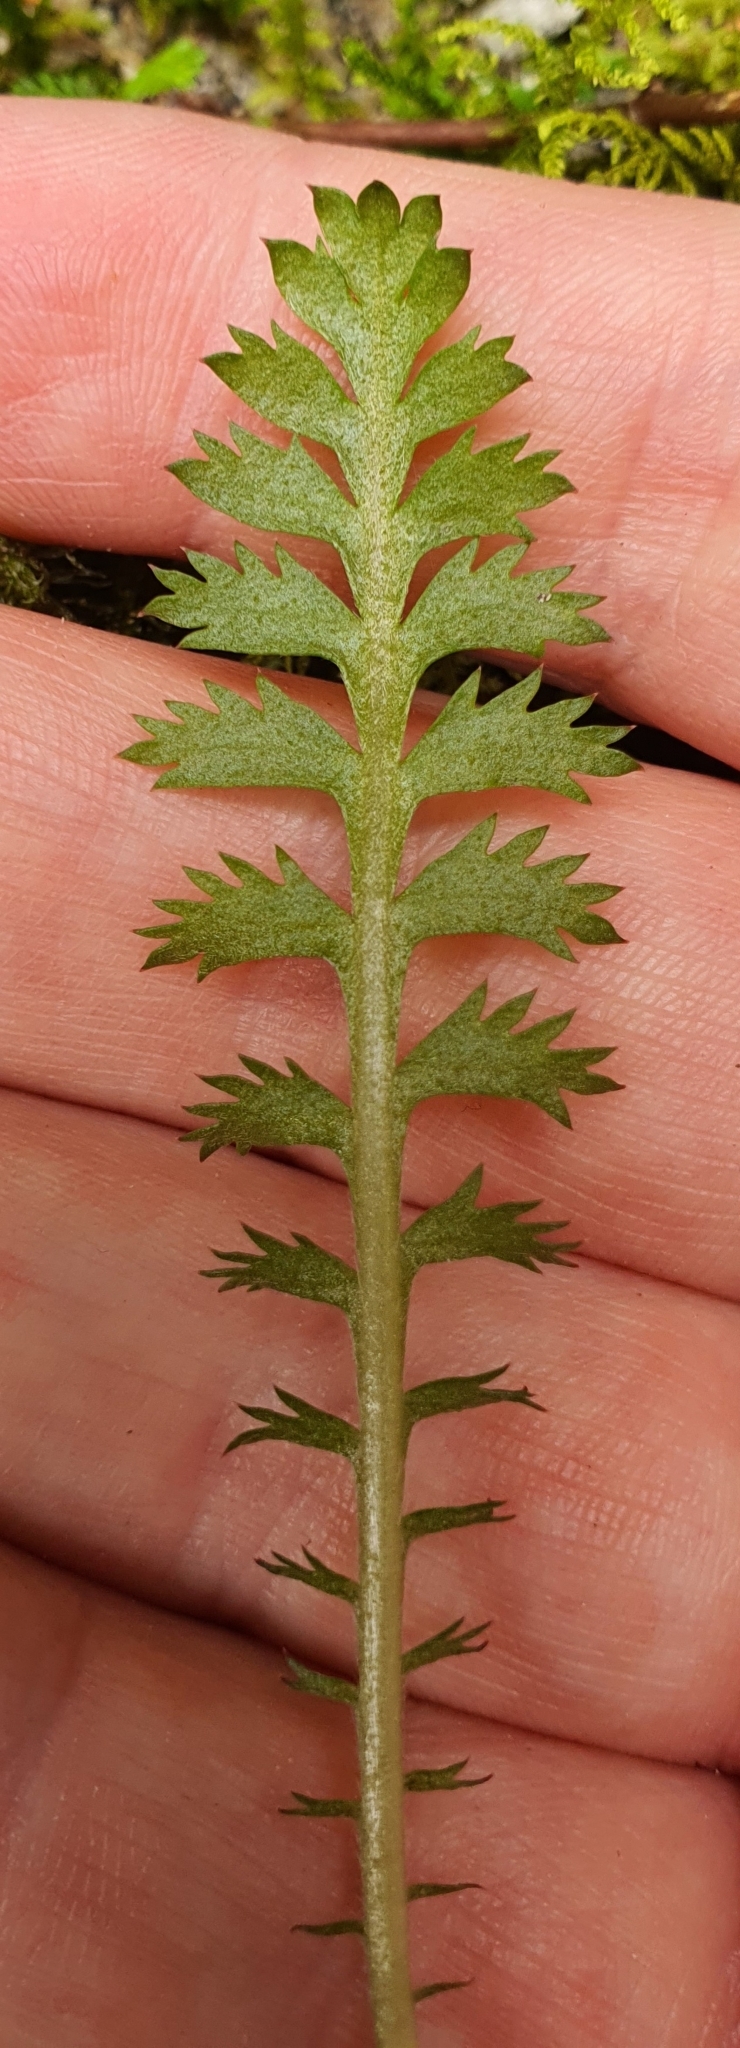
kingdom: Plantae
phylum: Tracheophyta
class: Magnoliopsida
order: Asterales
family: Asteraceae
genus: Leptinella
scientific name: Leptinella squalida
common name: New zealand brass-buttons
